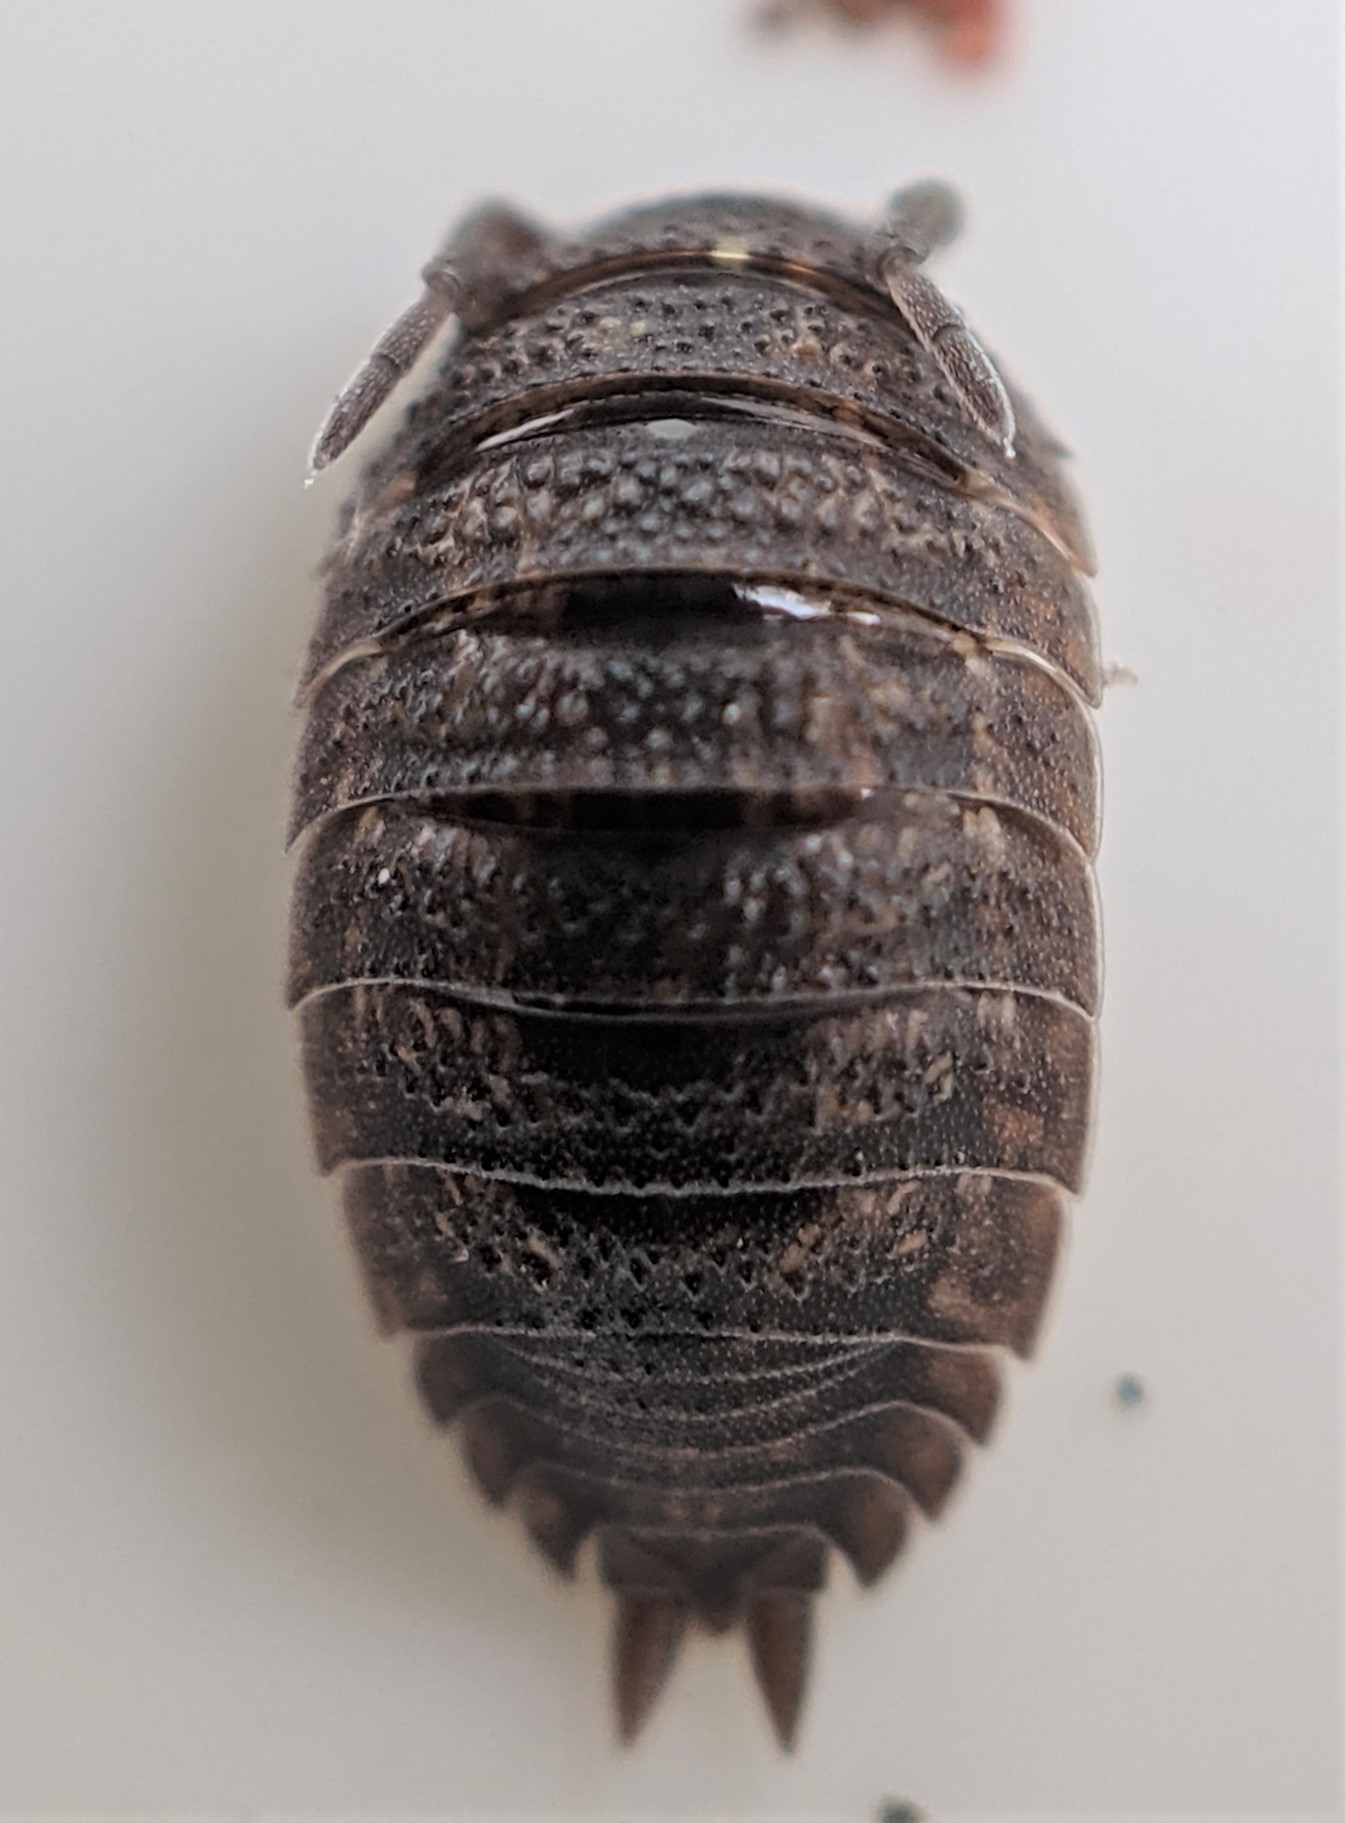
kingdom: Animalia
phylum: Arthropoda
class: Malacostraca
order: Isopoda
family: Porcellionidae
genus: Porcellio
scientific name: Porcellio scaber
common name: Common rough woodlouse
